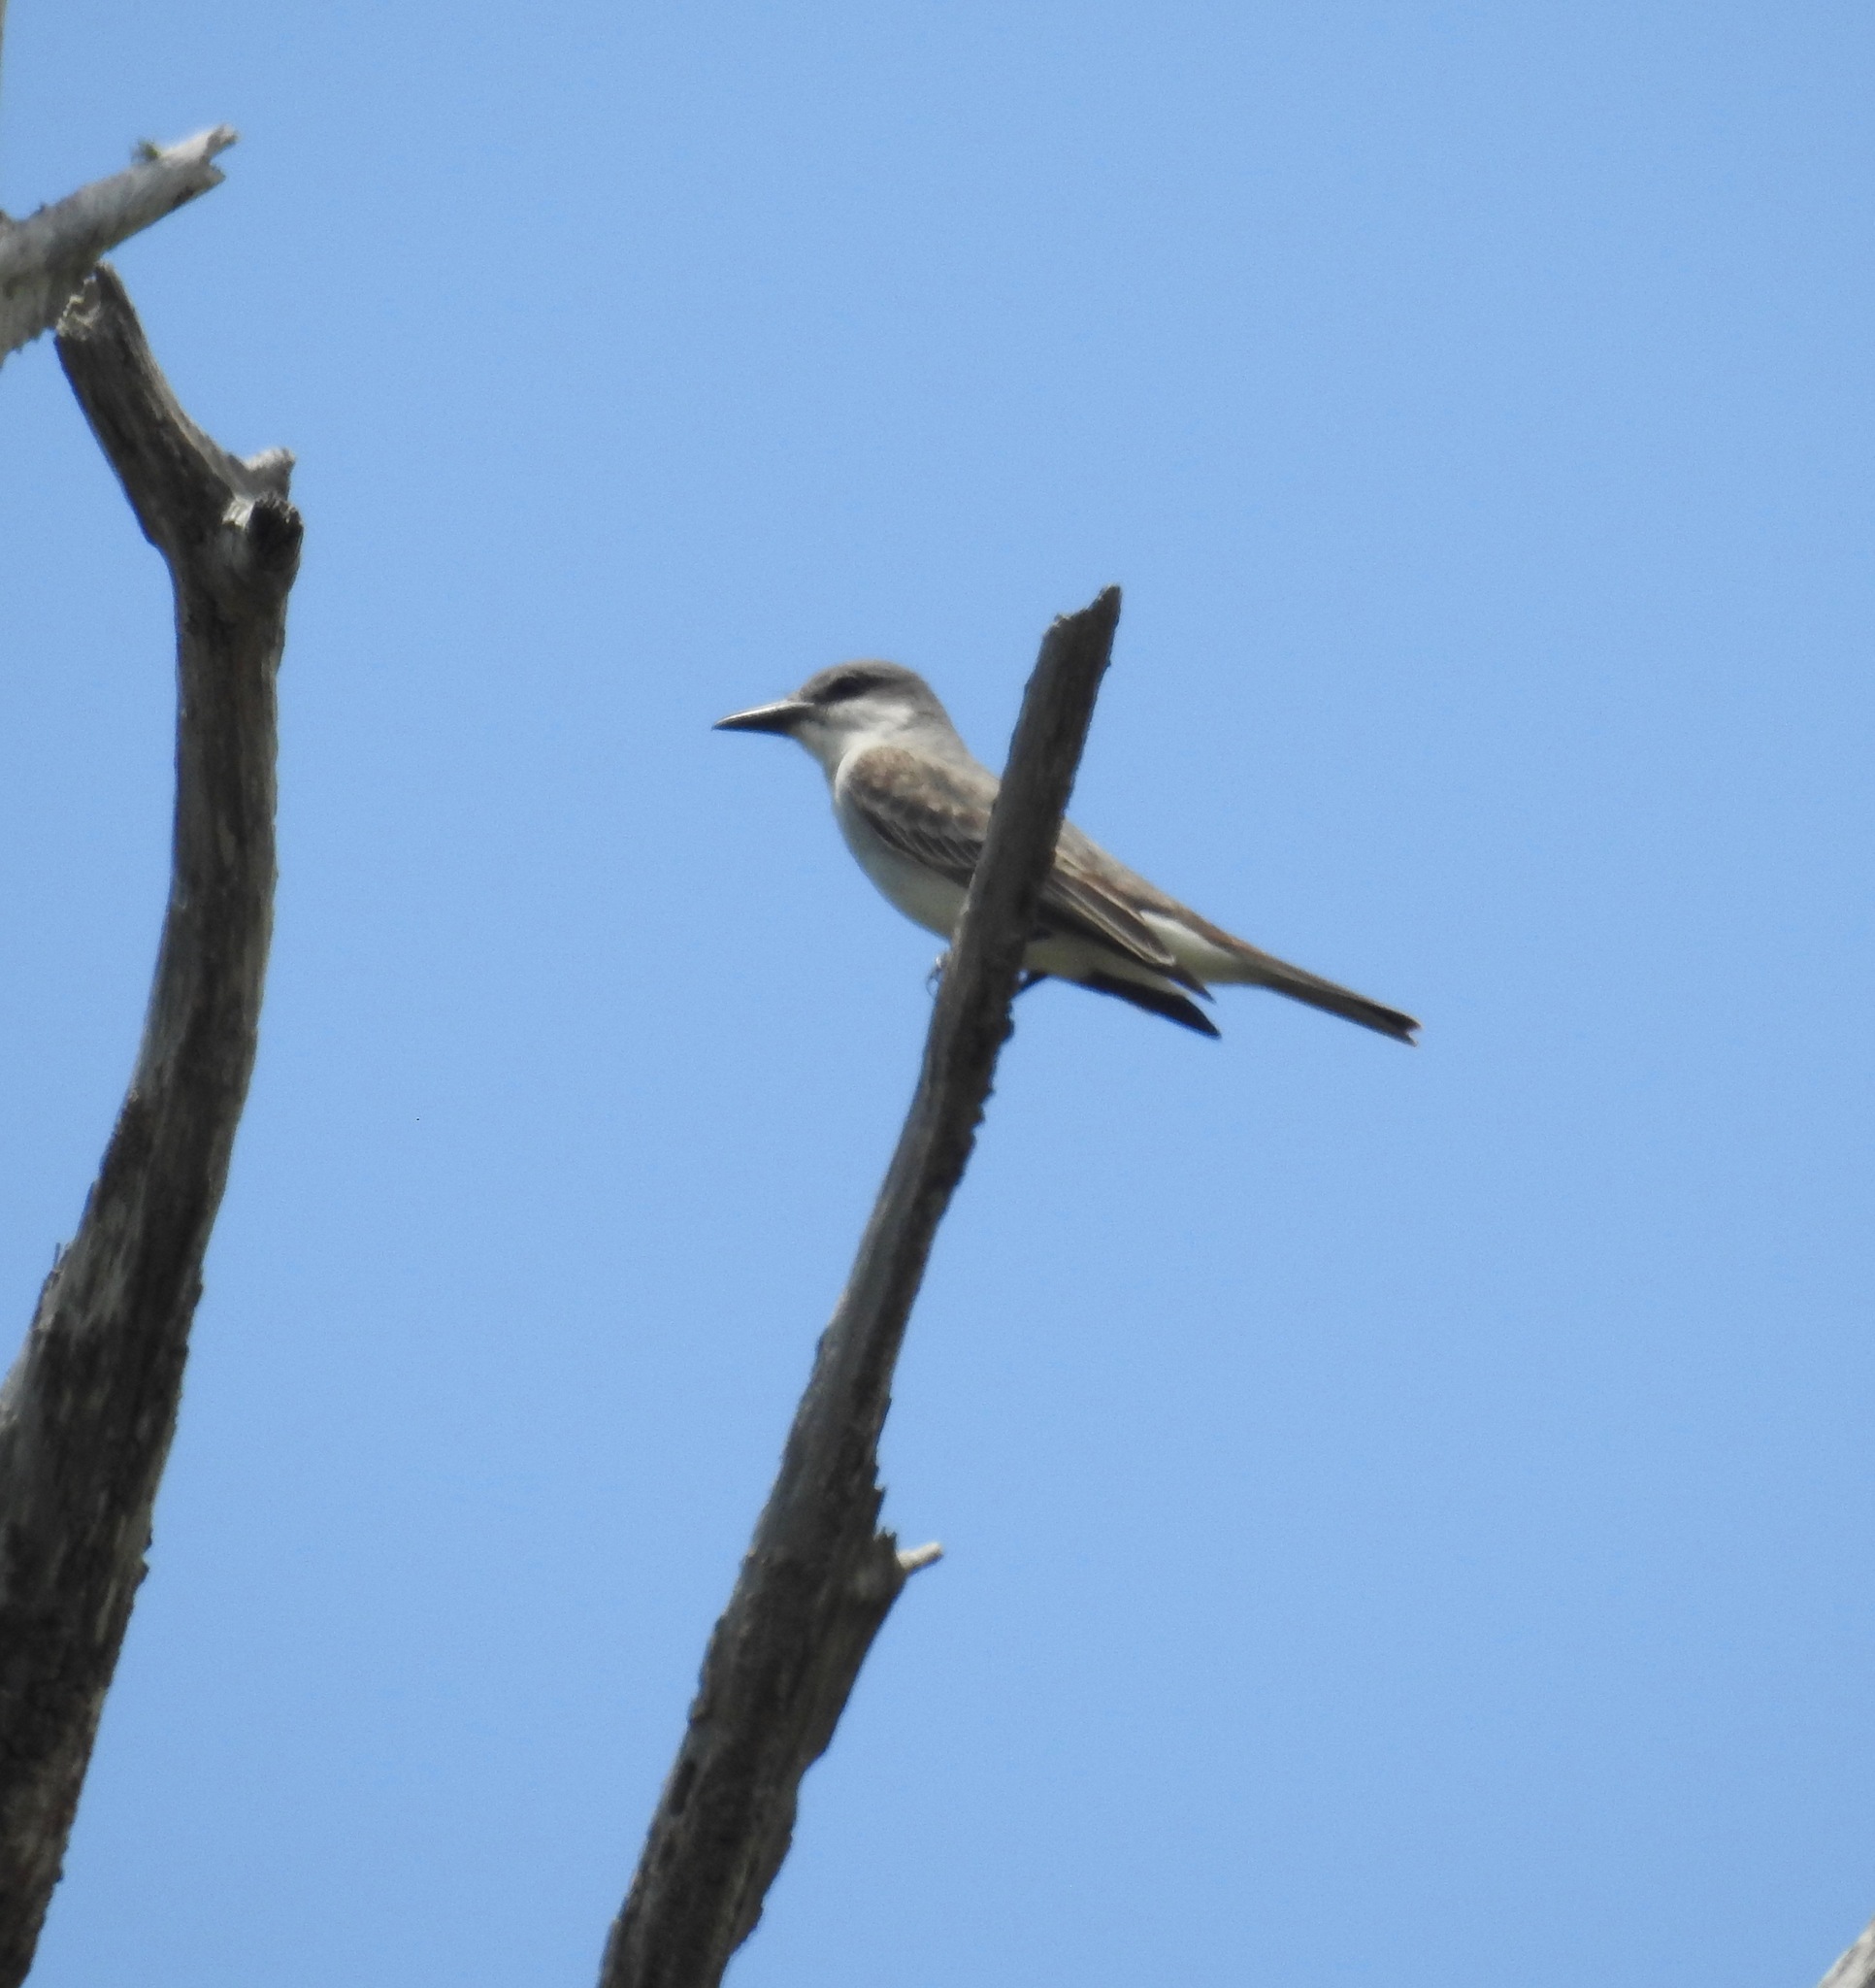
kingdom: Animalia
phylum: Chordata
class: Aves
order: Passeriformes
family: Tyrannidae
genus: Tyrannus
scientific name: Tyrannus dominicensis
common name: Gray kingbird
